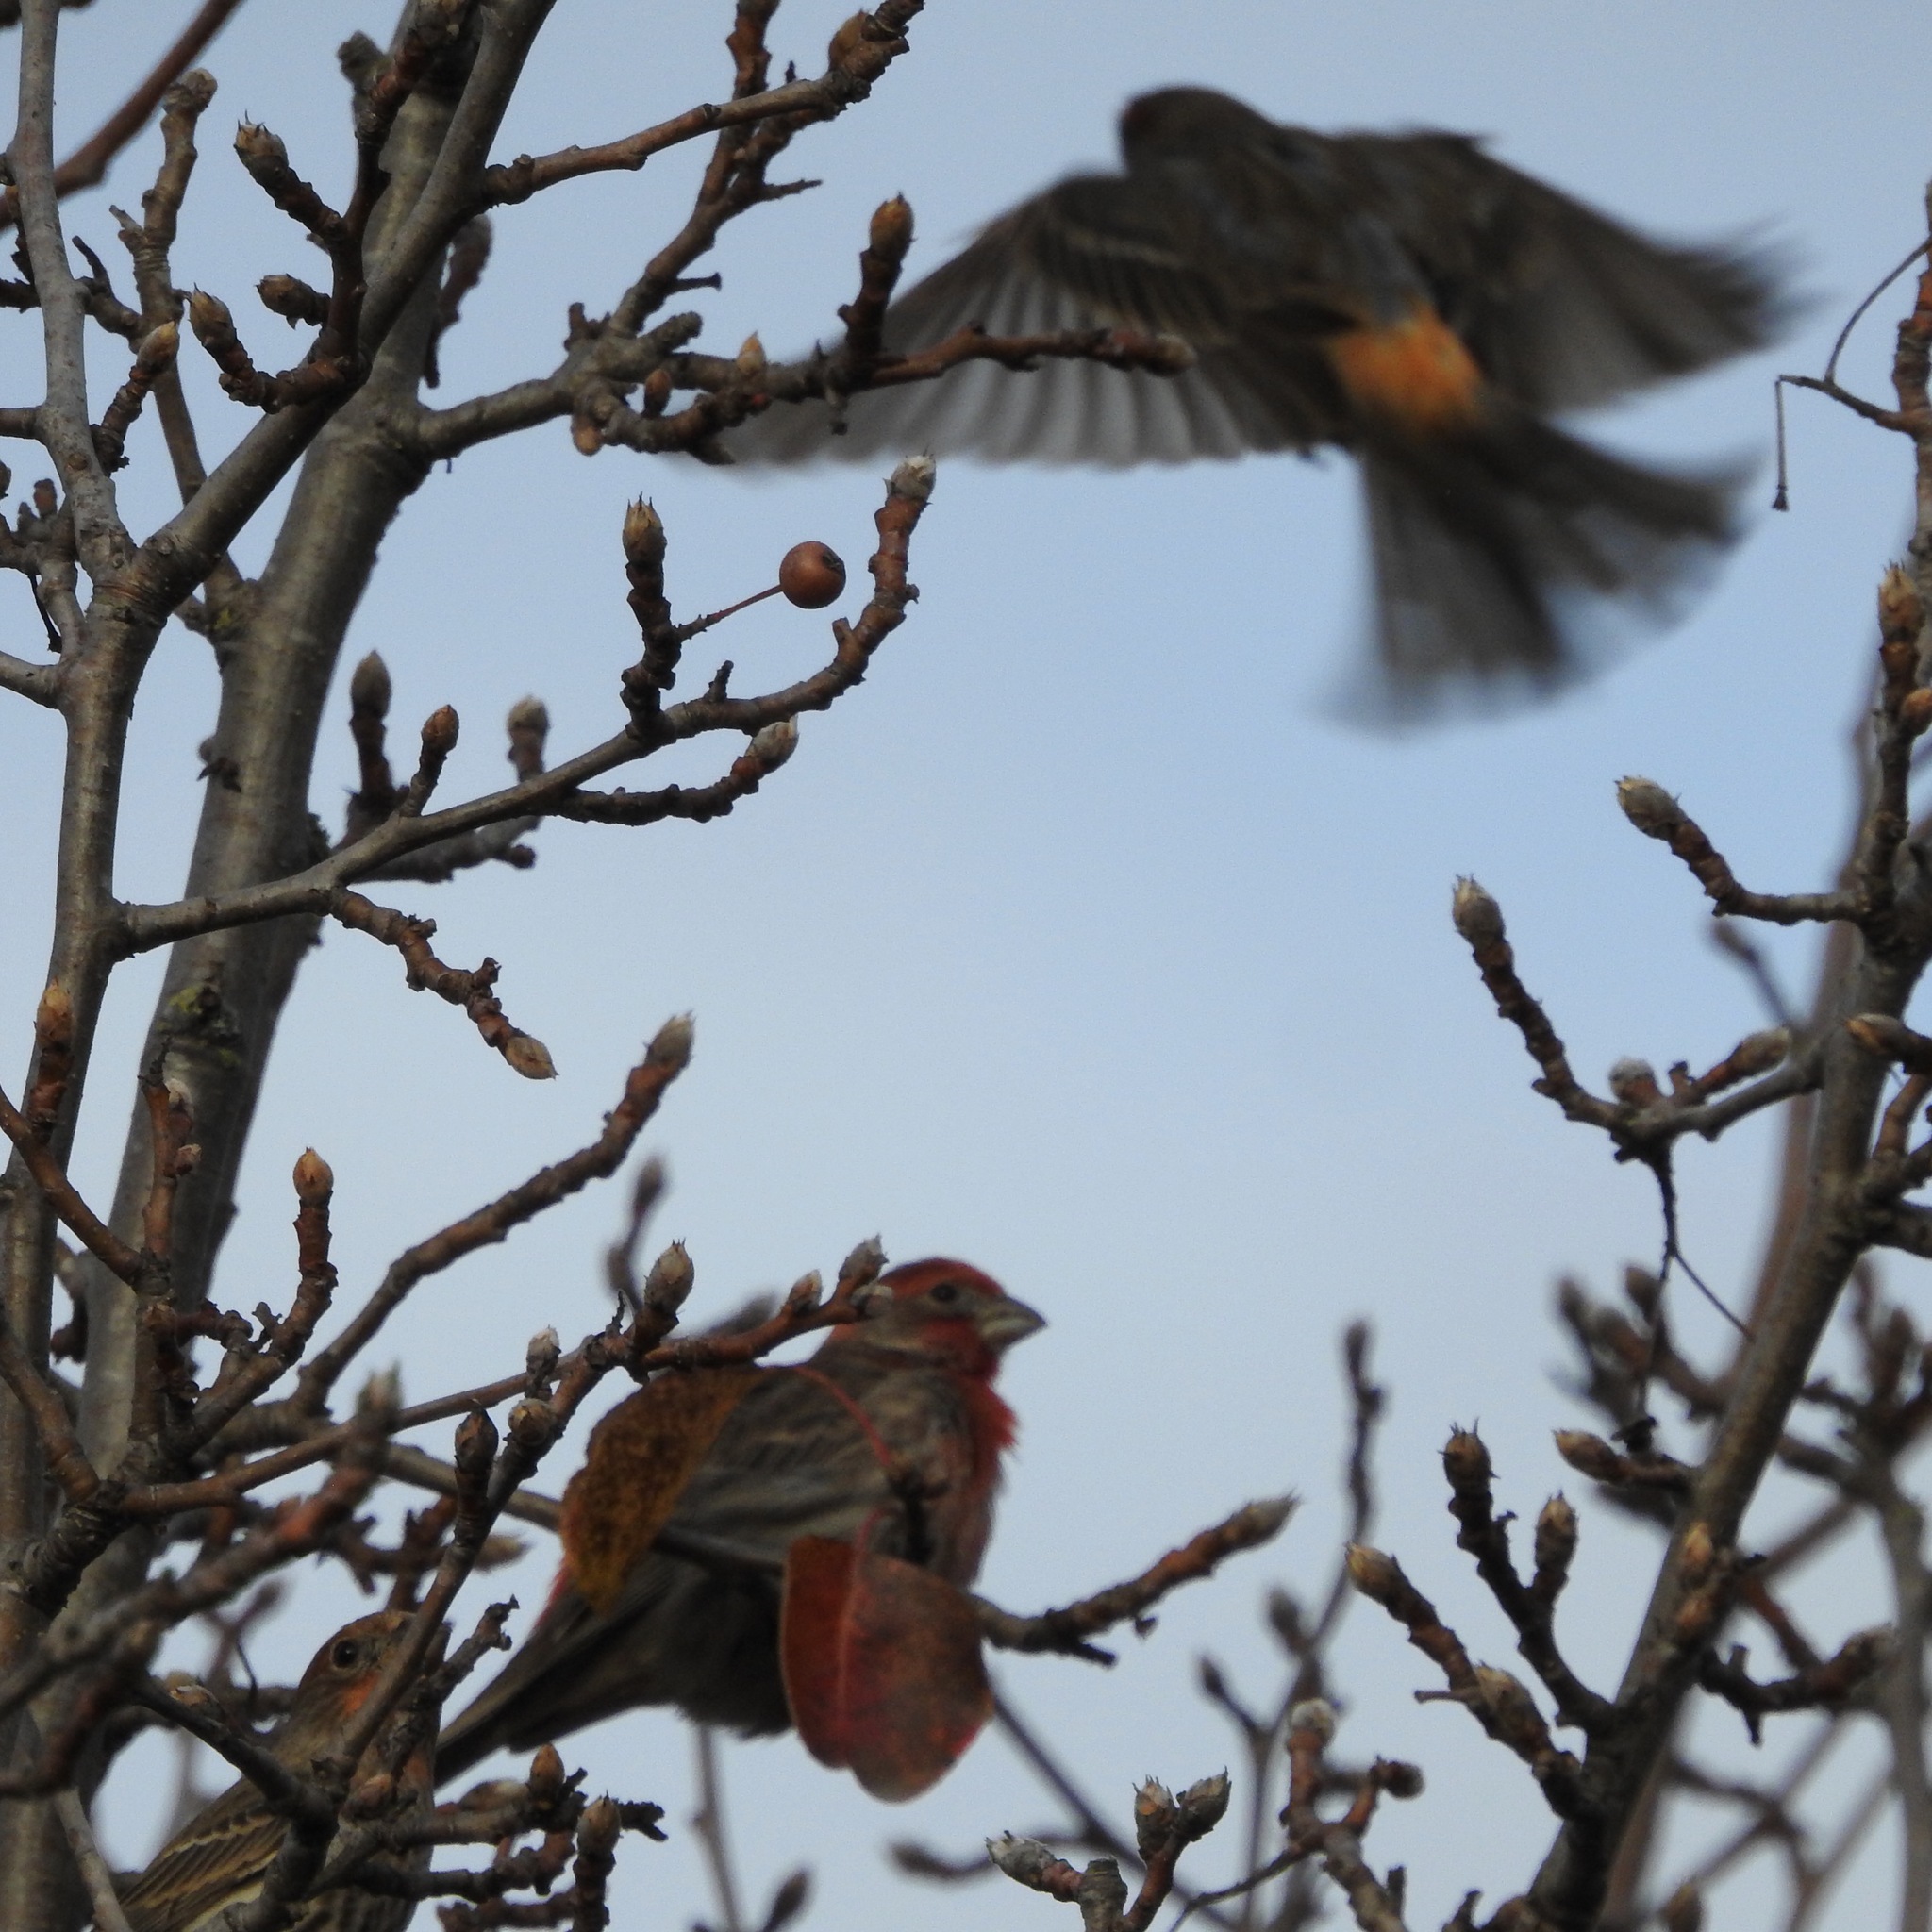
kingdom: Animalia
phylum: Chordata
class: Aves
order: Passeriformes
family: Fringillidae
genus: Haemorhous
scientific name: Haemorhous mexicanus
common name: House finch
